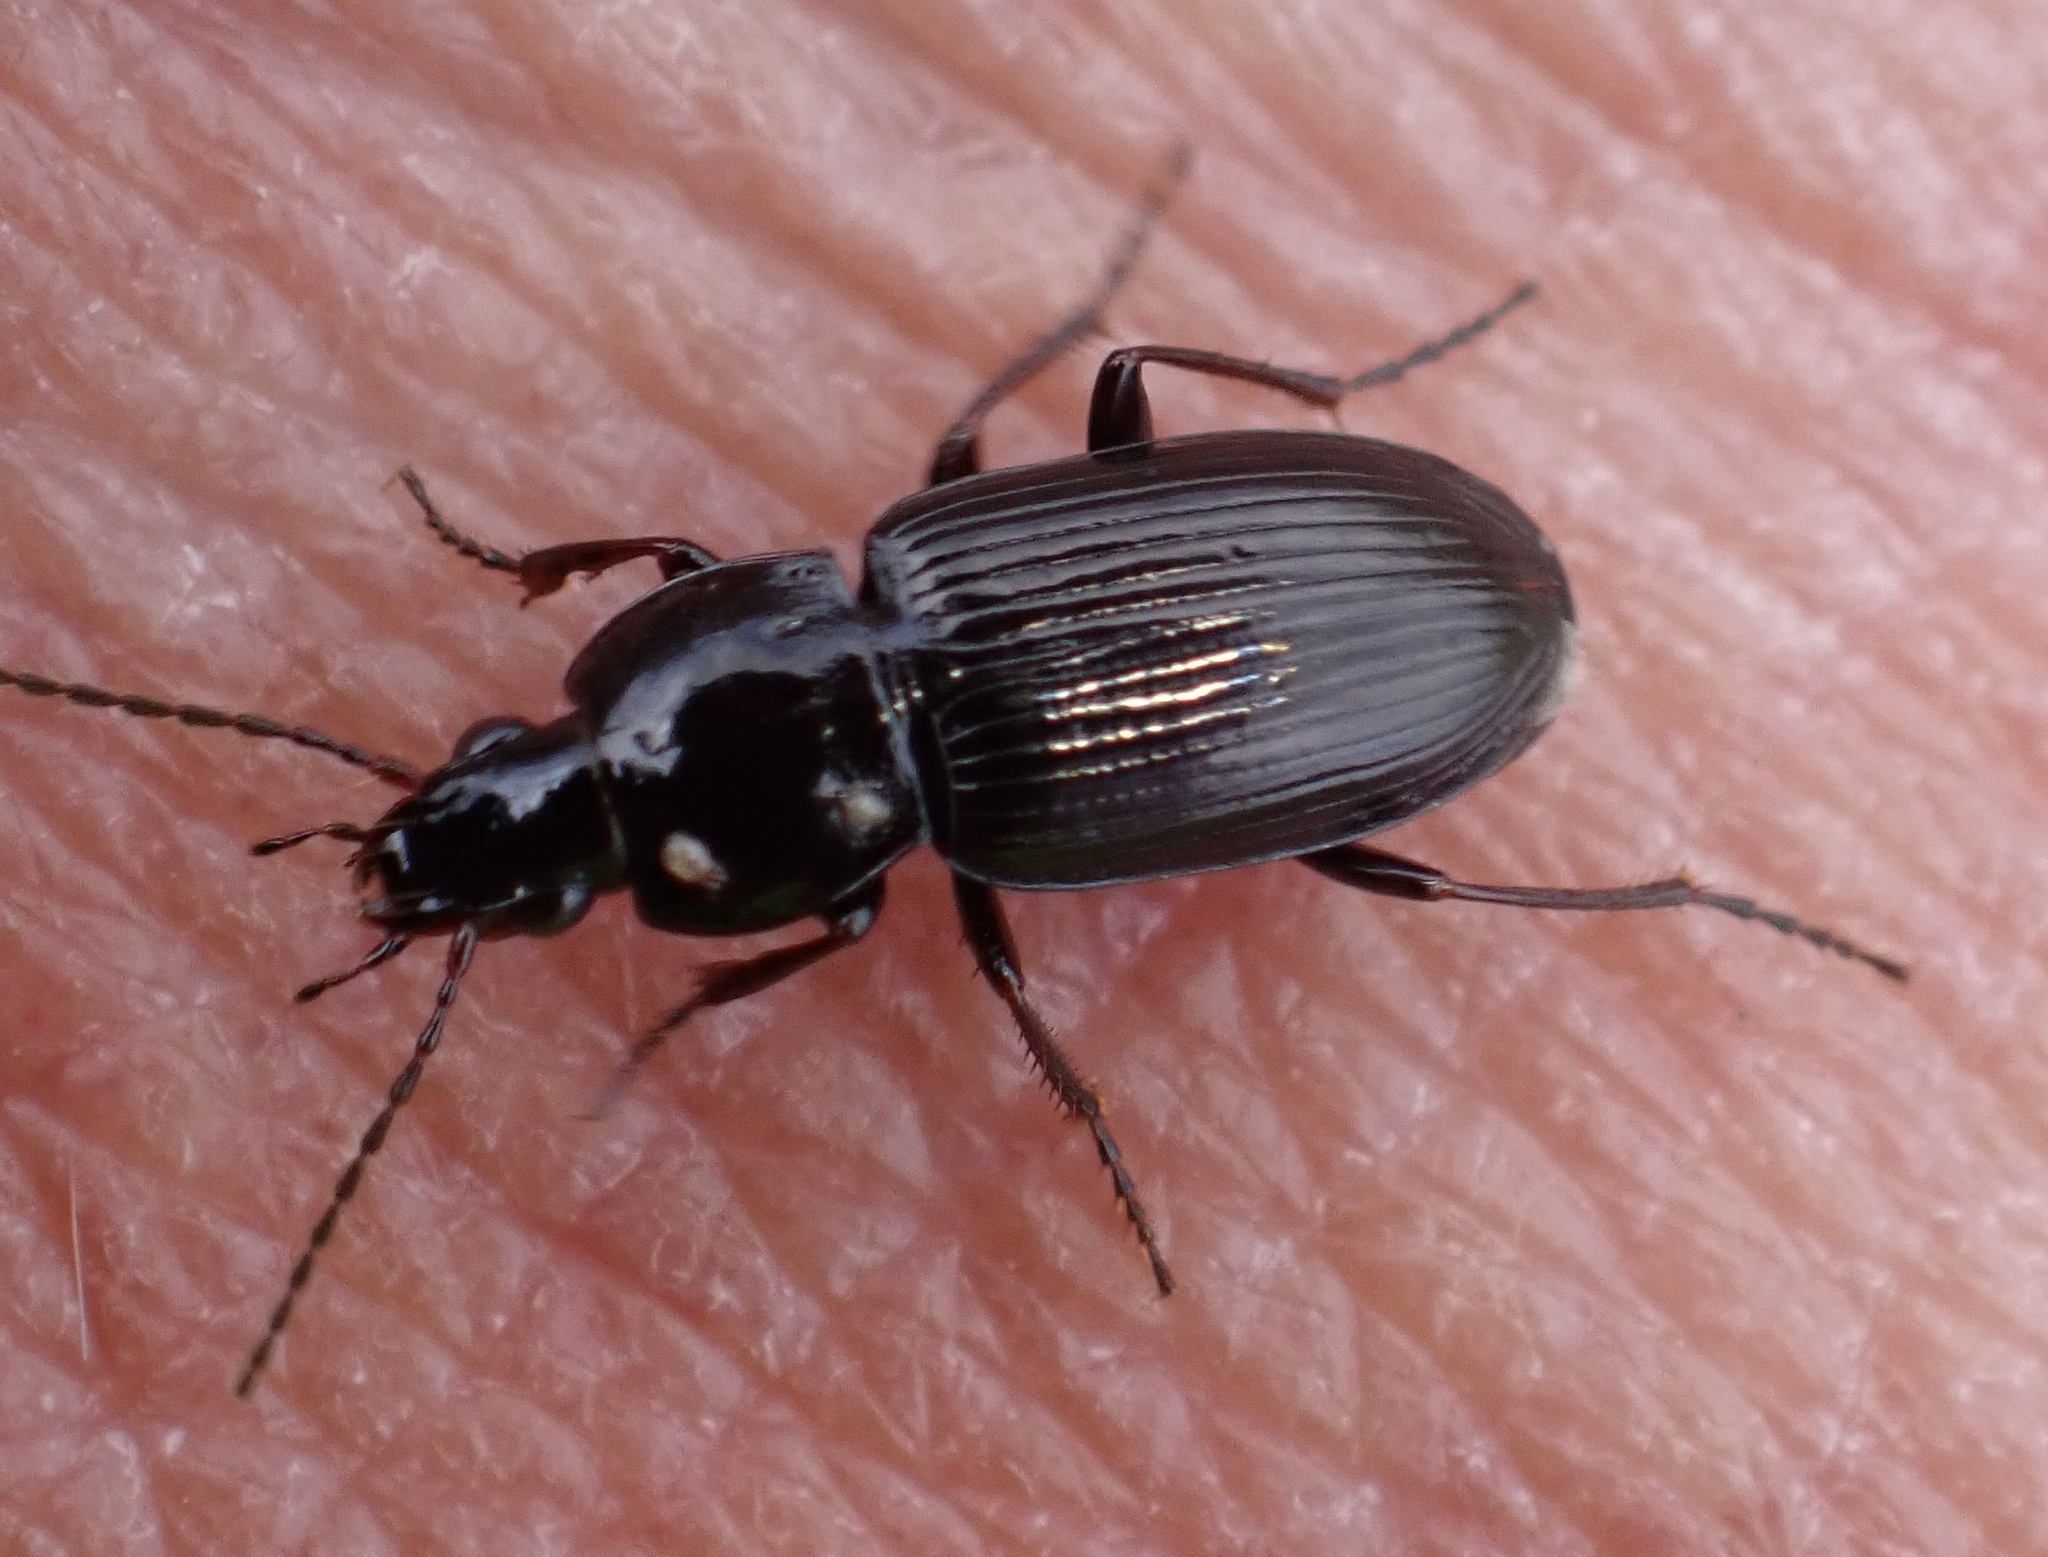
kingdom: Animalia
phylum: Arthropoda
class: Insecta
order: Coleoptera
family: Carabidae
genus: Pterostichus
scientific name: Pterostichus vernalis
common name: Spring harp ground beetle
